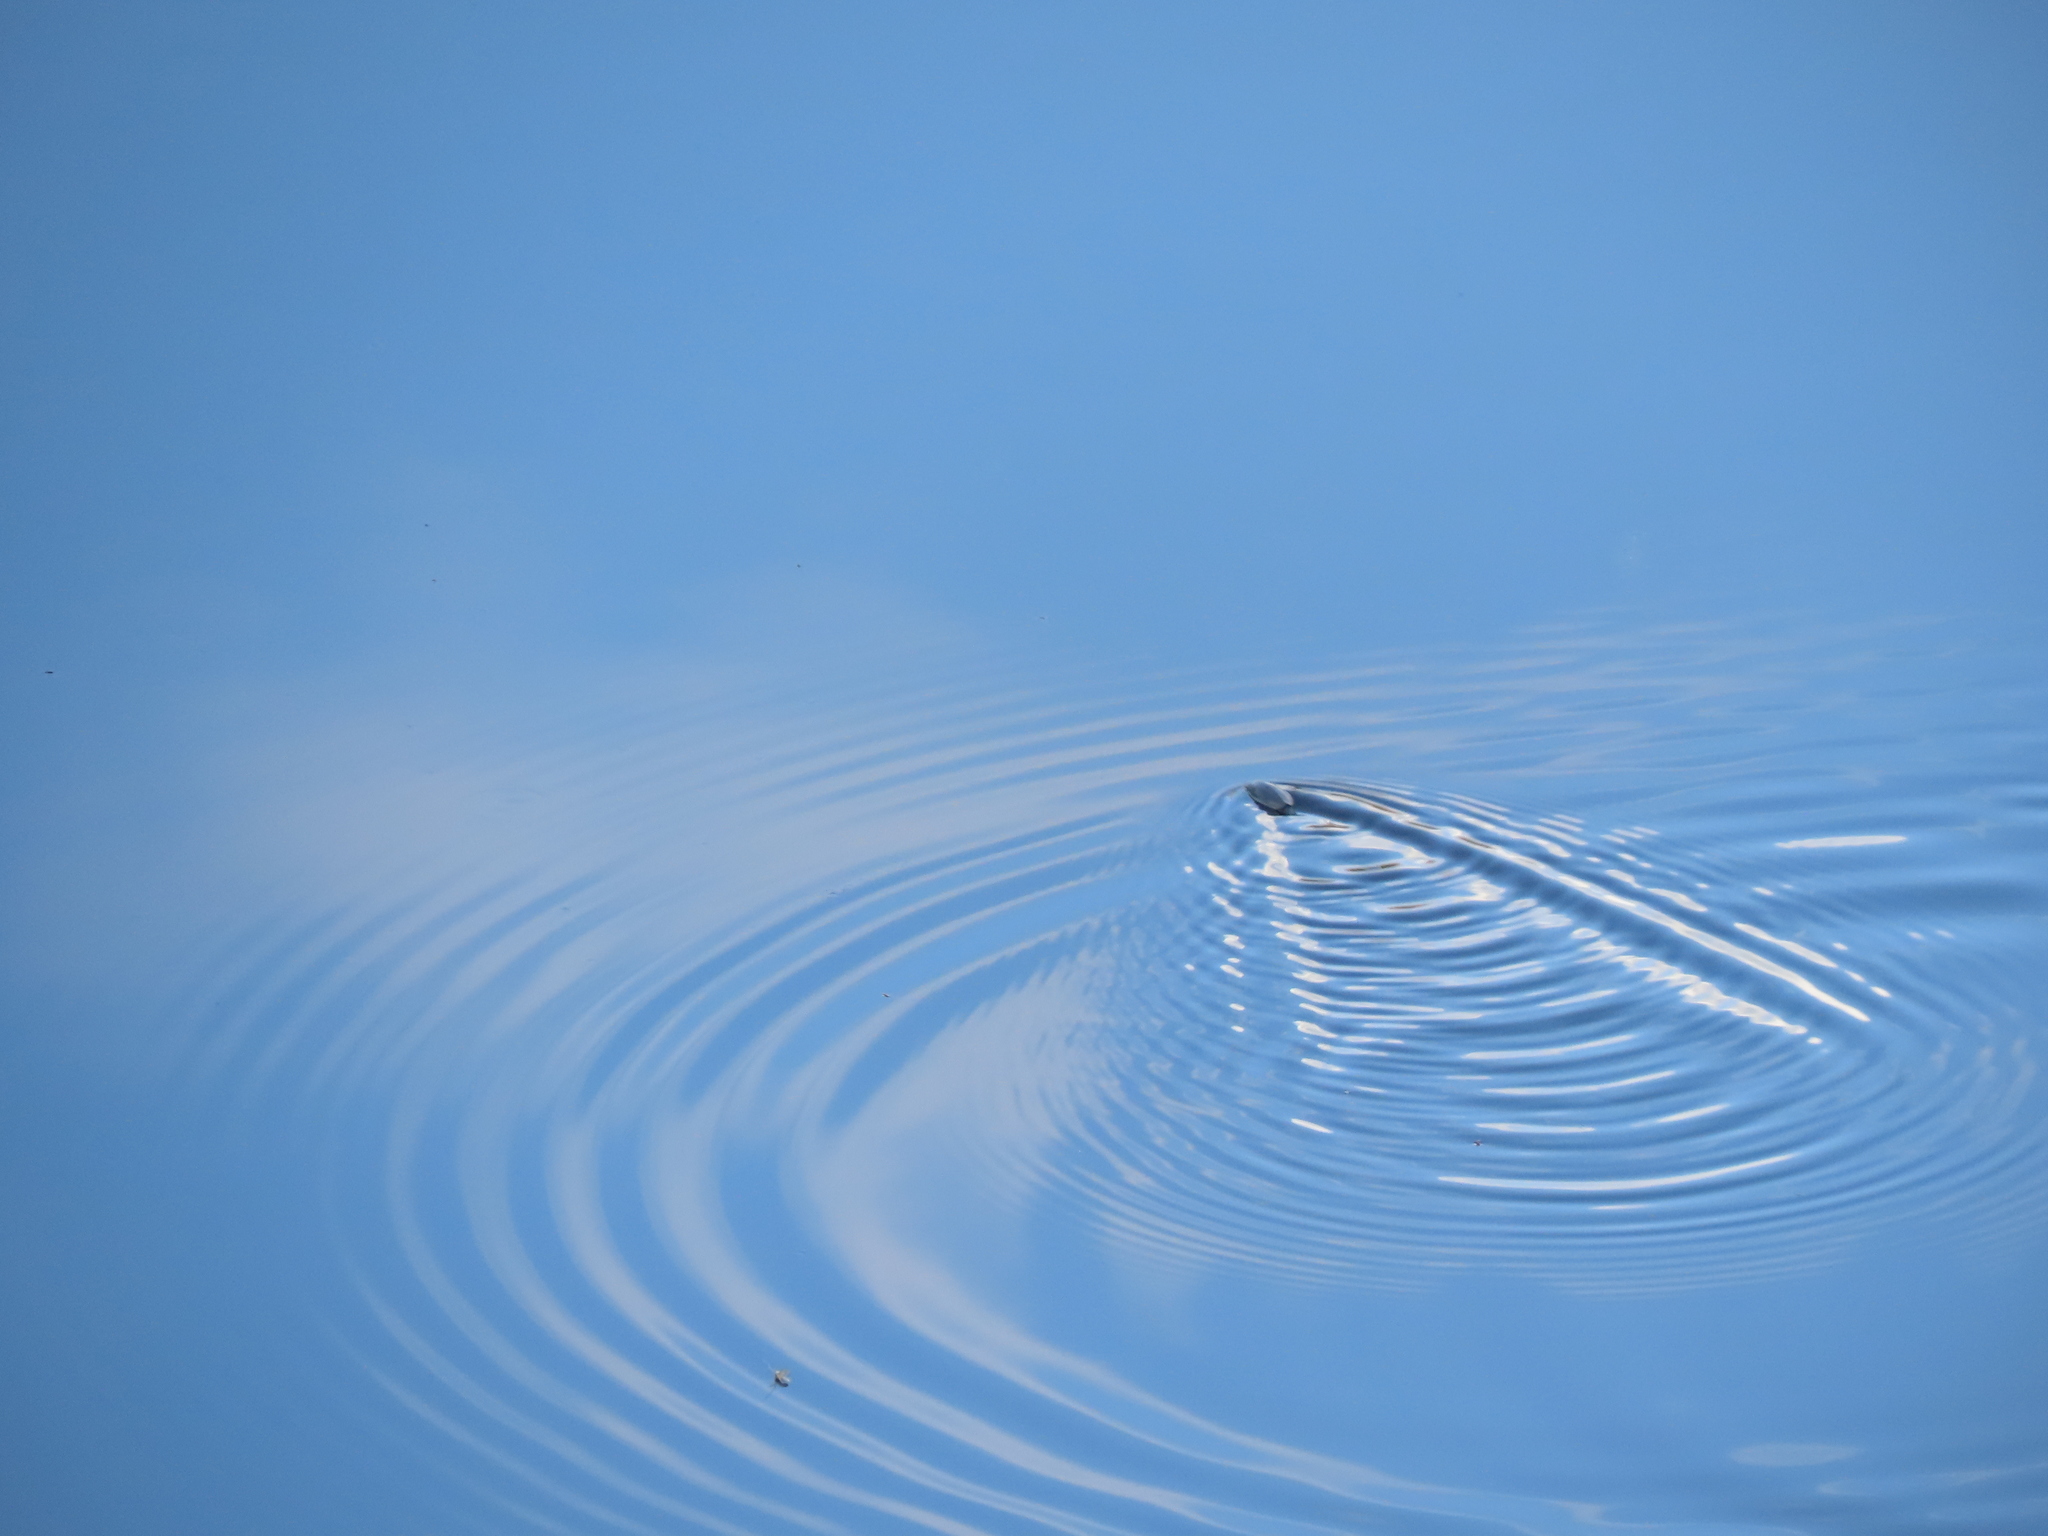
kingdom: Animalia
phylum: Arthropoda
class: Insecta
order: Coleoptera
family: Gyrinidae
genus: Dineutus
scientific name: Dineutus
